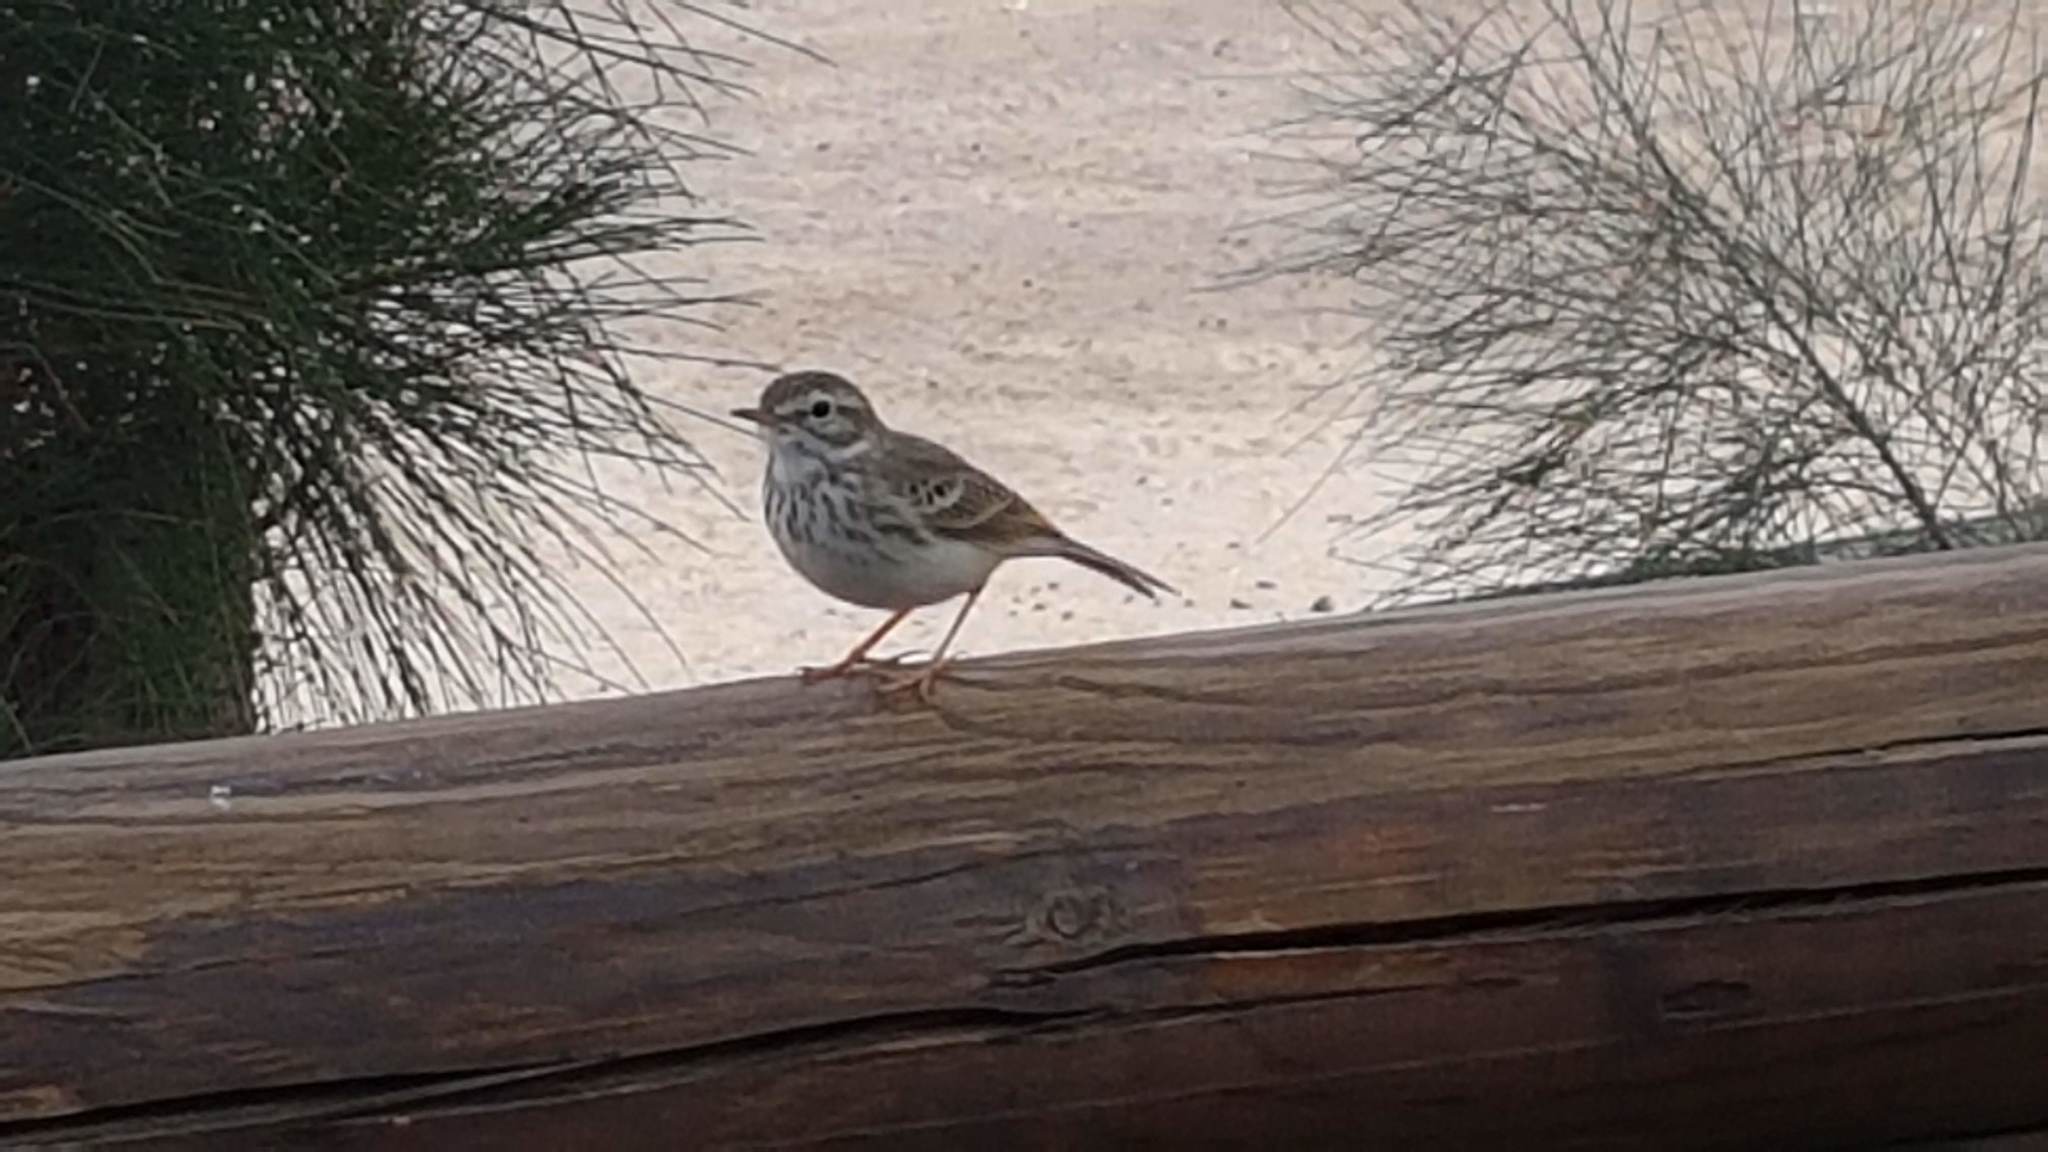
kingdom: Animalia
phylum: Chordata
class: Aves
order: Passeriformes
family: Motacillidae
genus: Anthus
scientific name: Anthus berthelotii
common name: Berthelot's pipit
